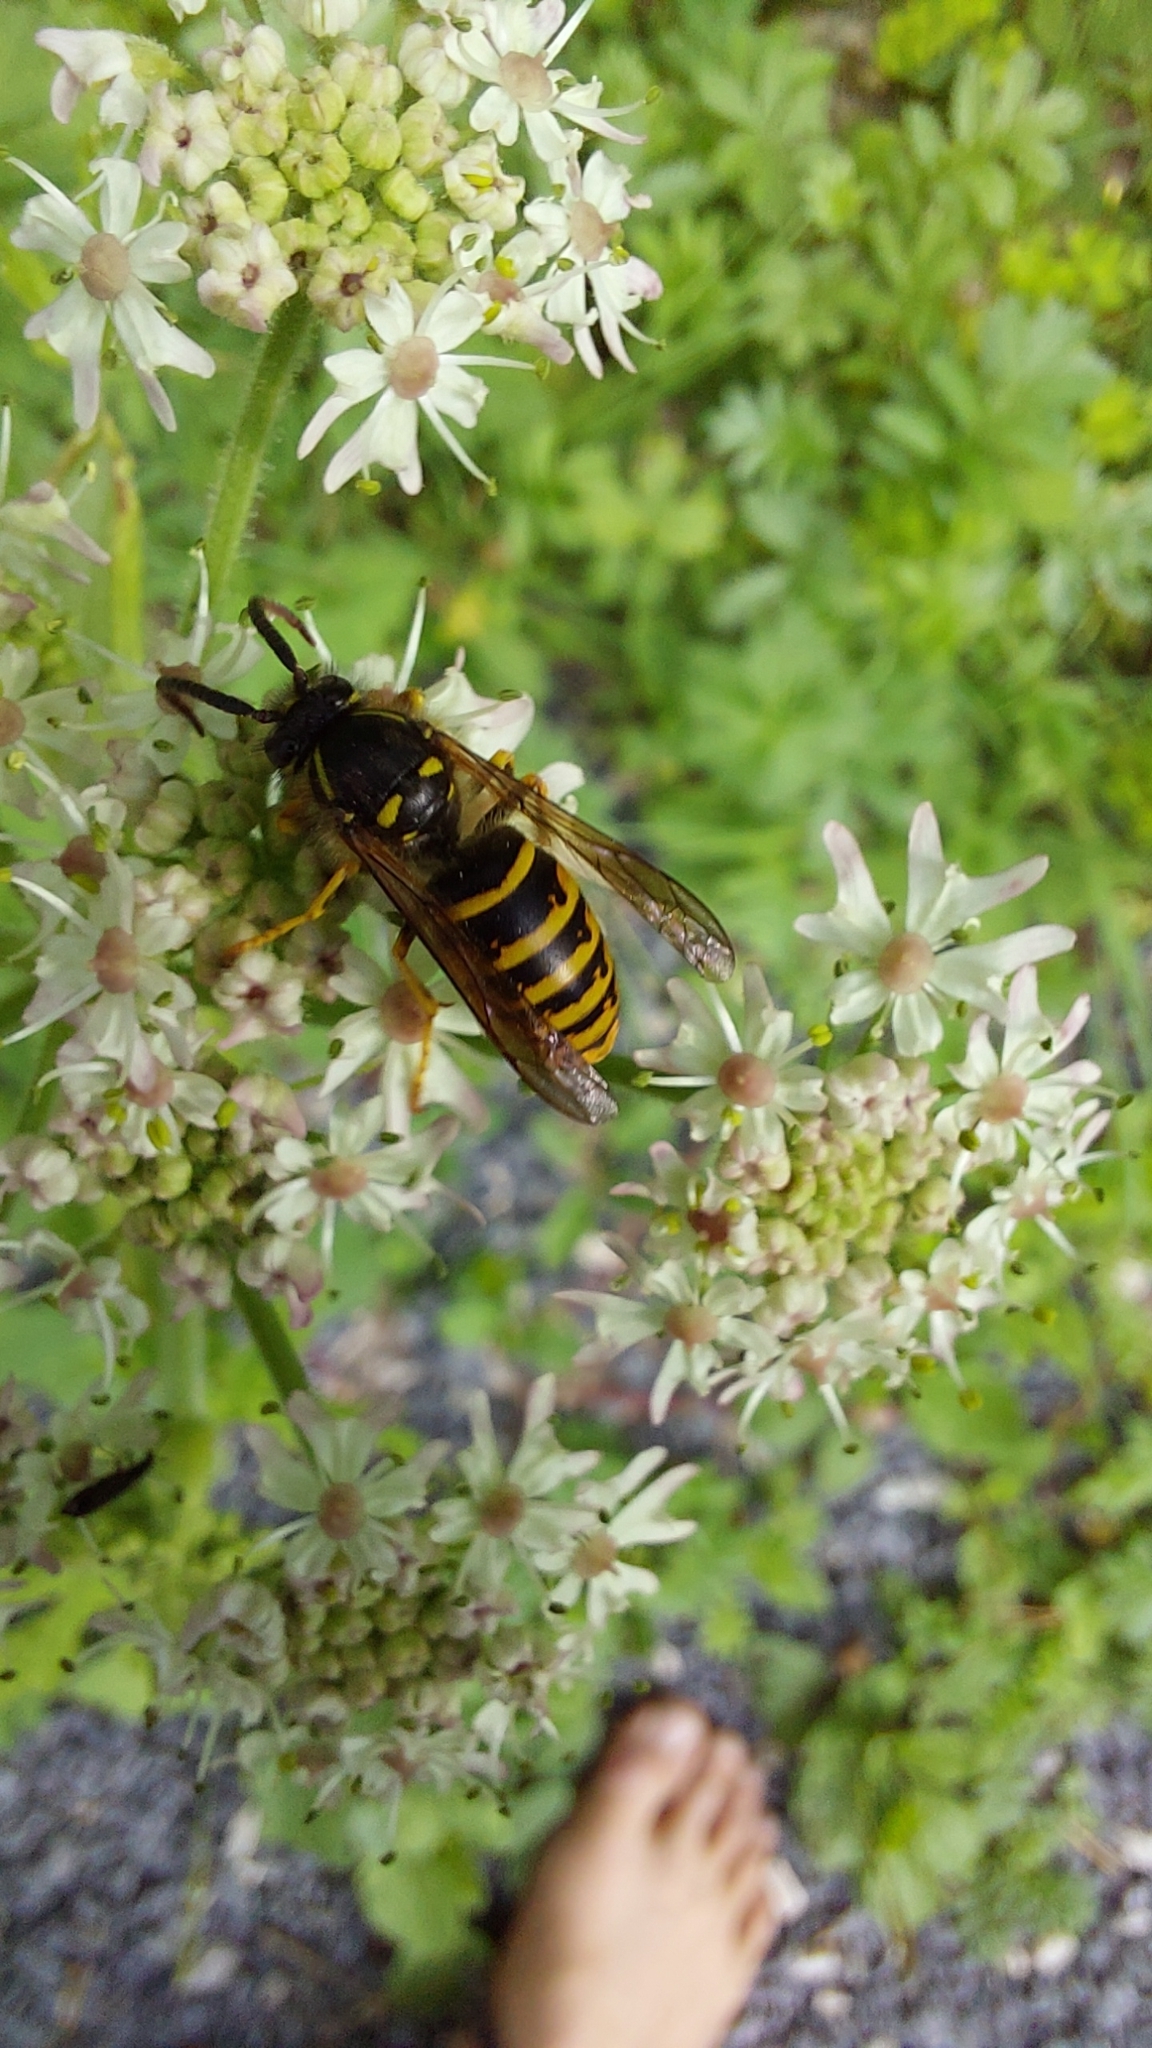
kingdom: Animalia
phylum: Arthropoda
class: Insecta
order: Hymenoptera
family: Vespidae
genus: Dolichovespula
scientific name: Dolichovespula saxonica
